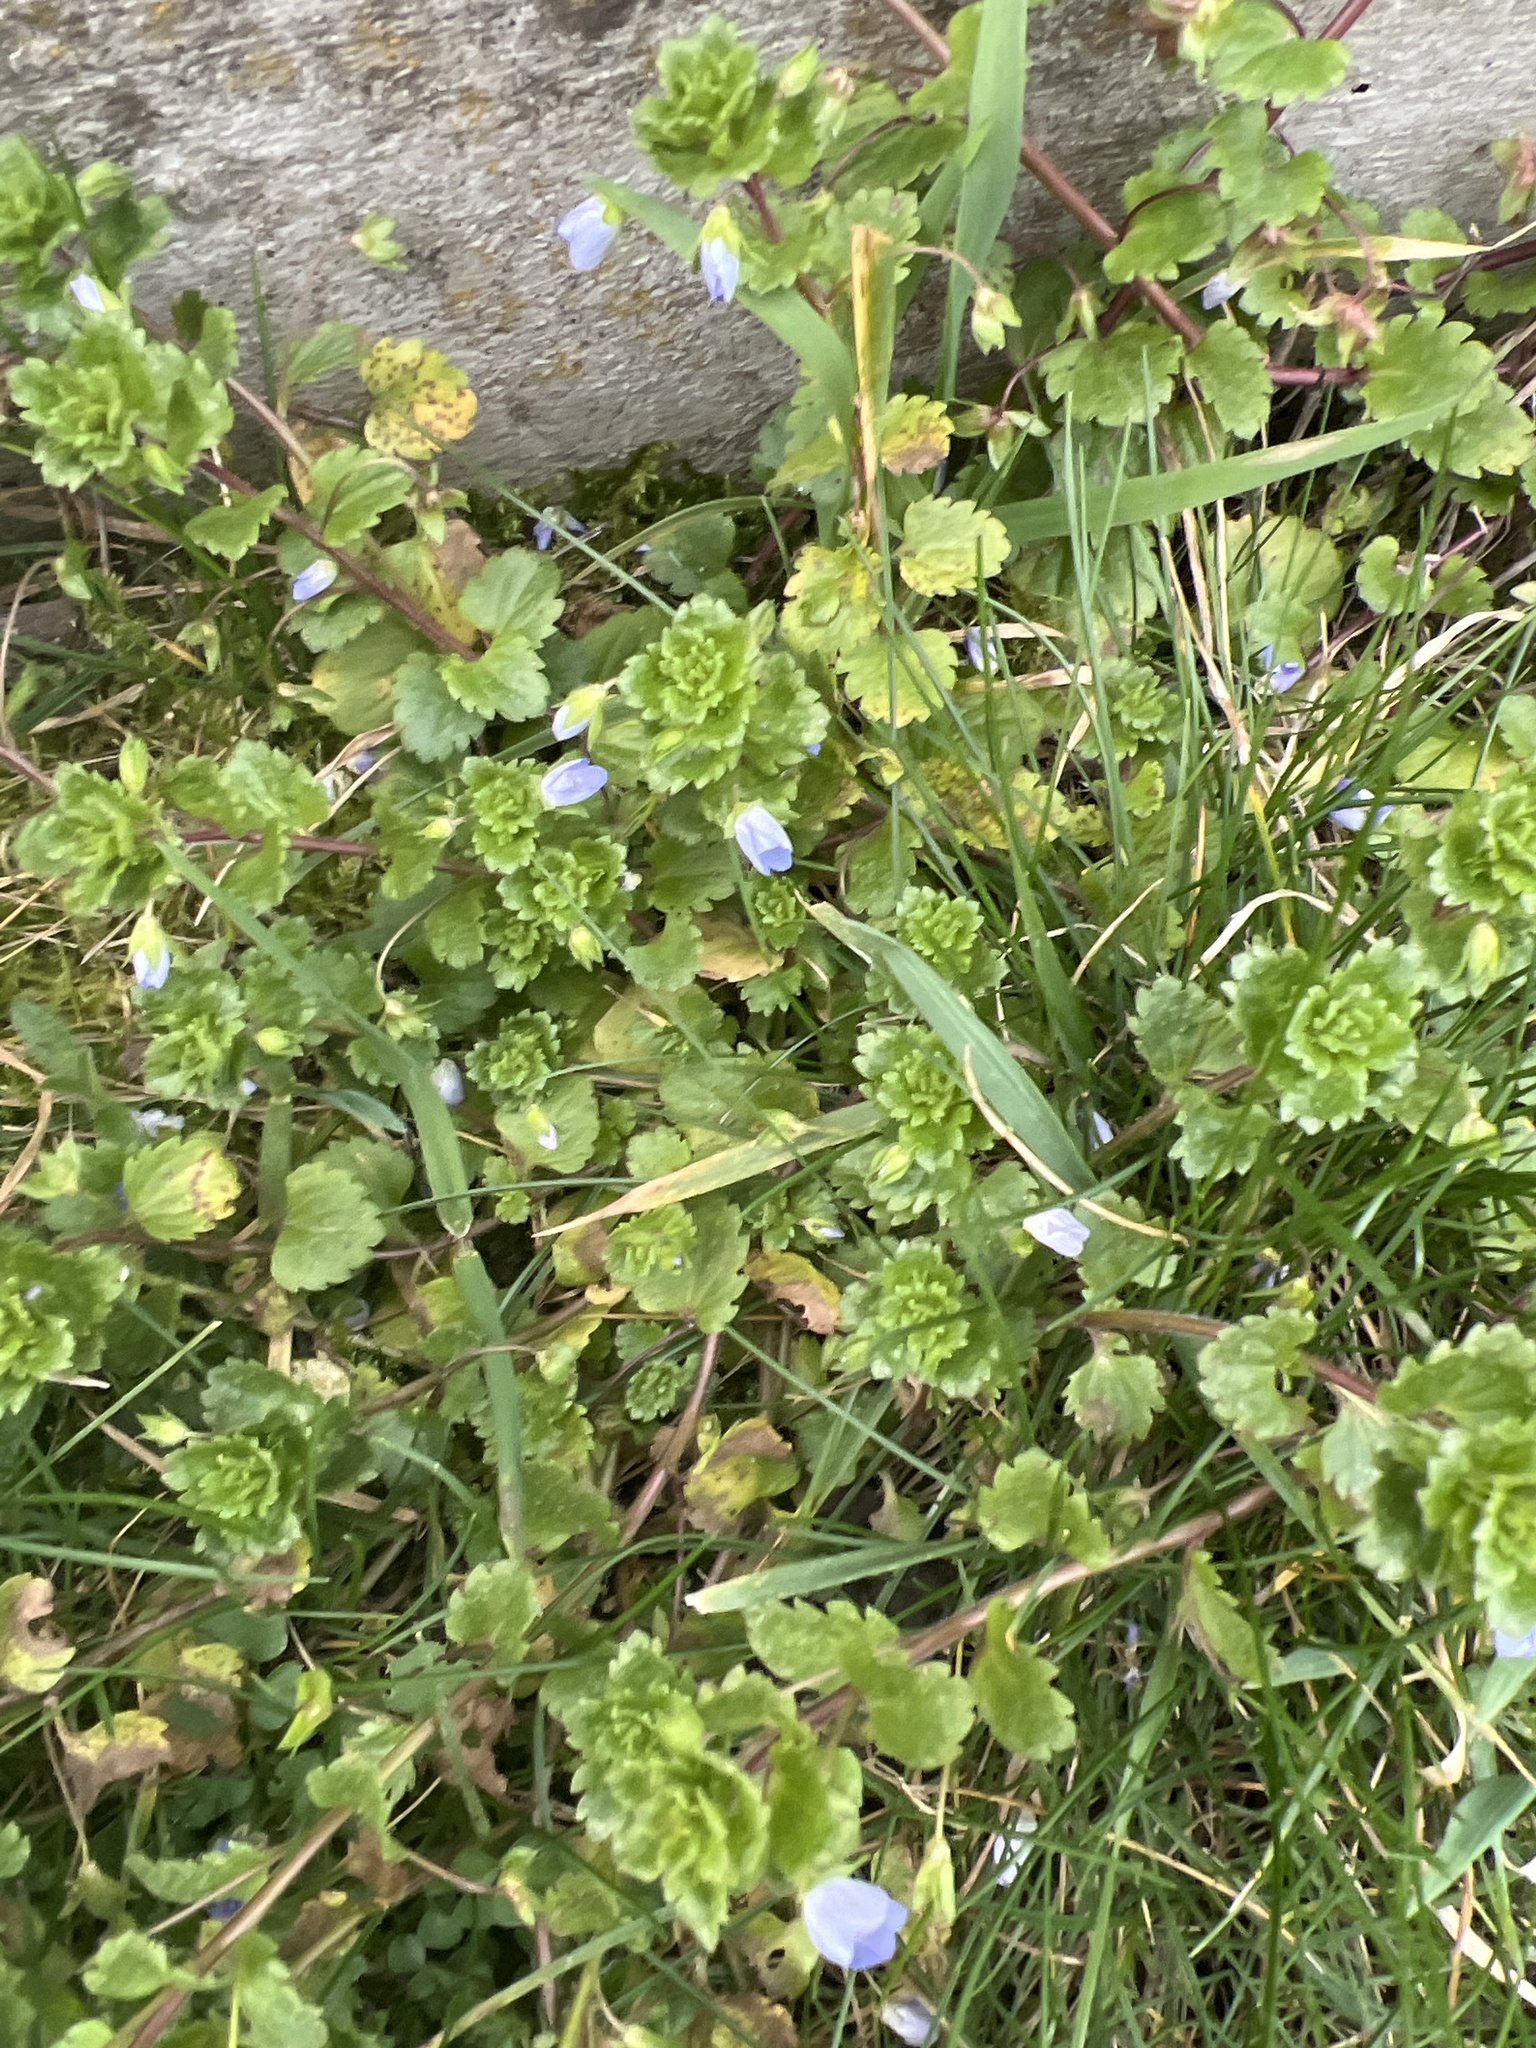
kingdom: Plantae
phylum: Tracheophyta
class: Magnoliopsida
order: Lamiales
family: Plantaginaceae
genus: Veronica
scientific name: Veronica persica
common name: Common field-speedwell
